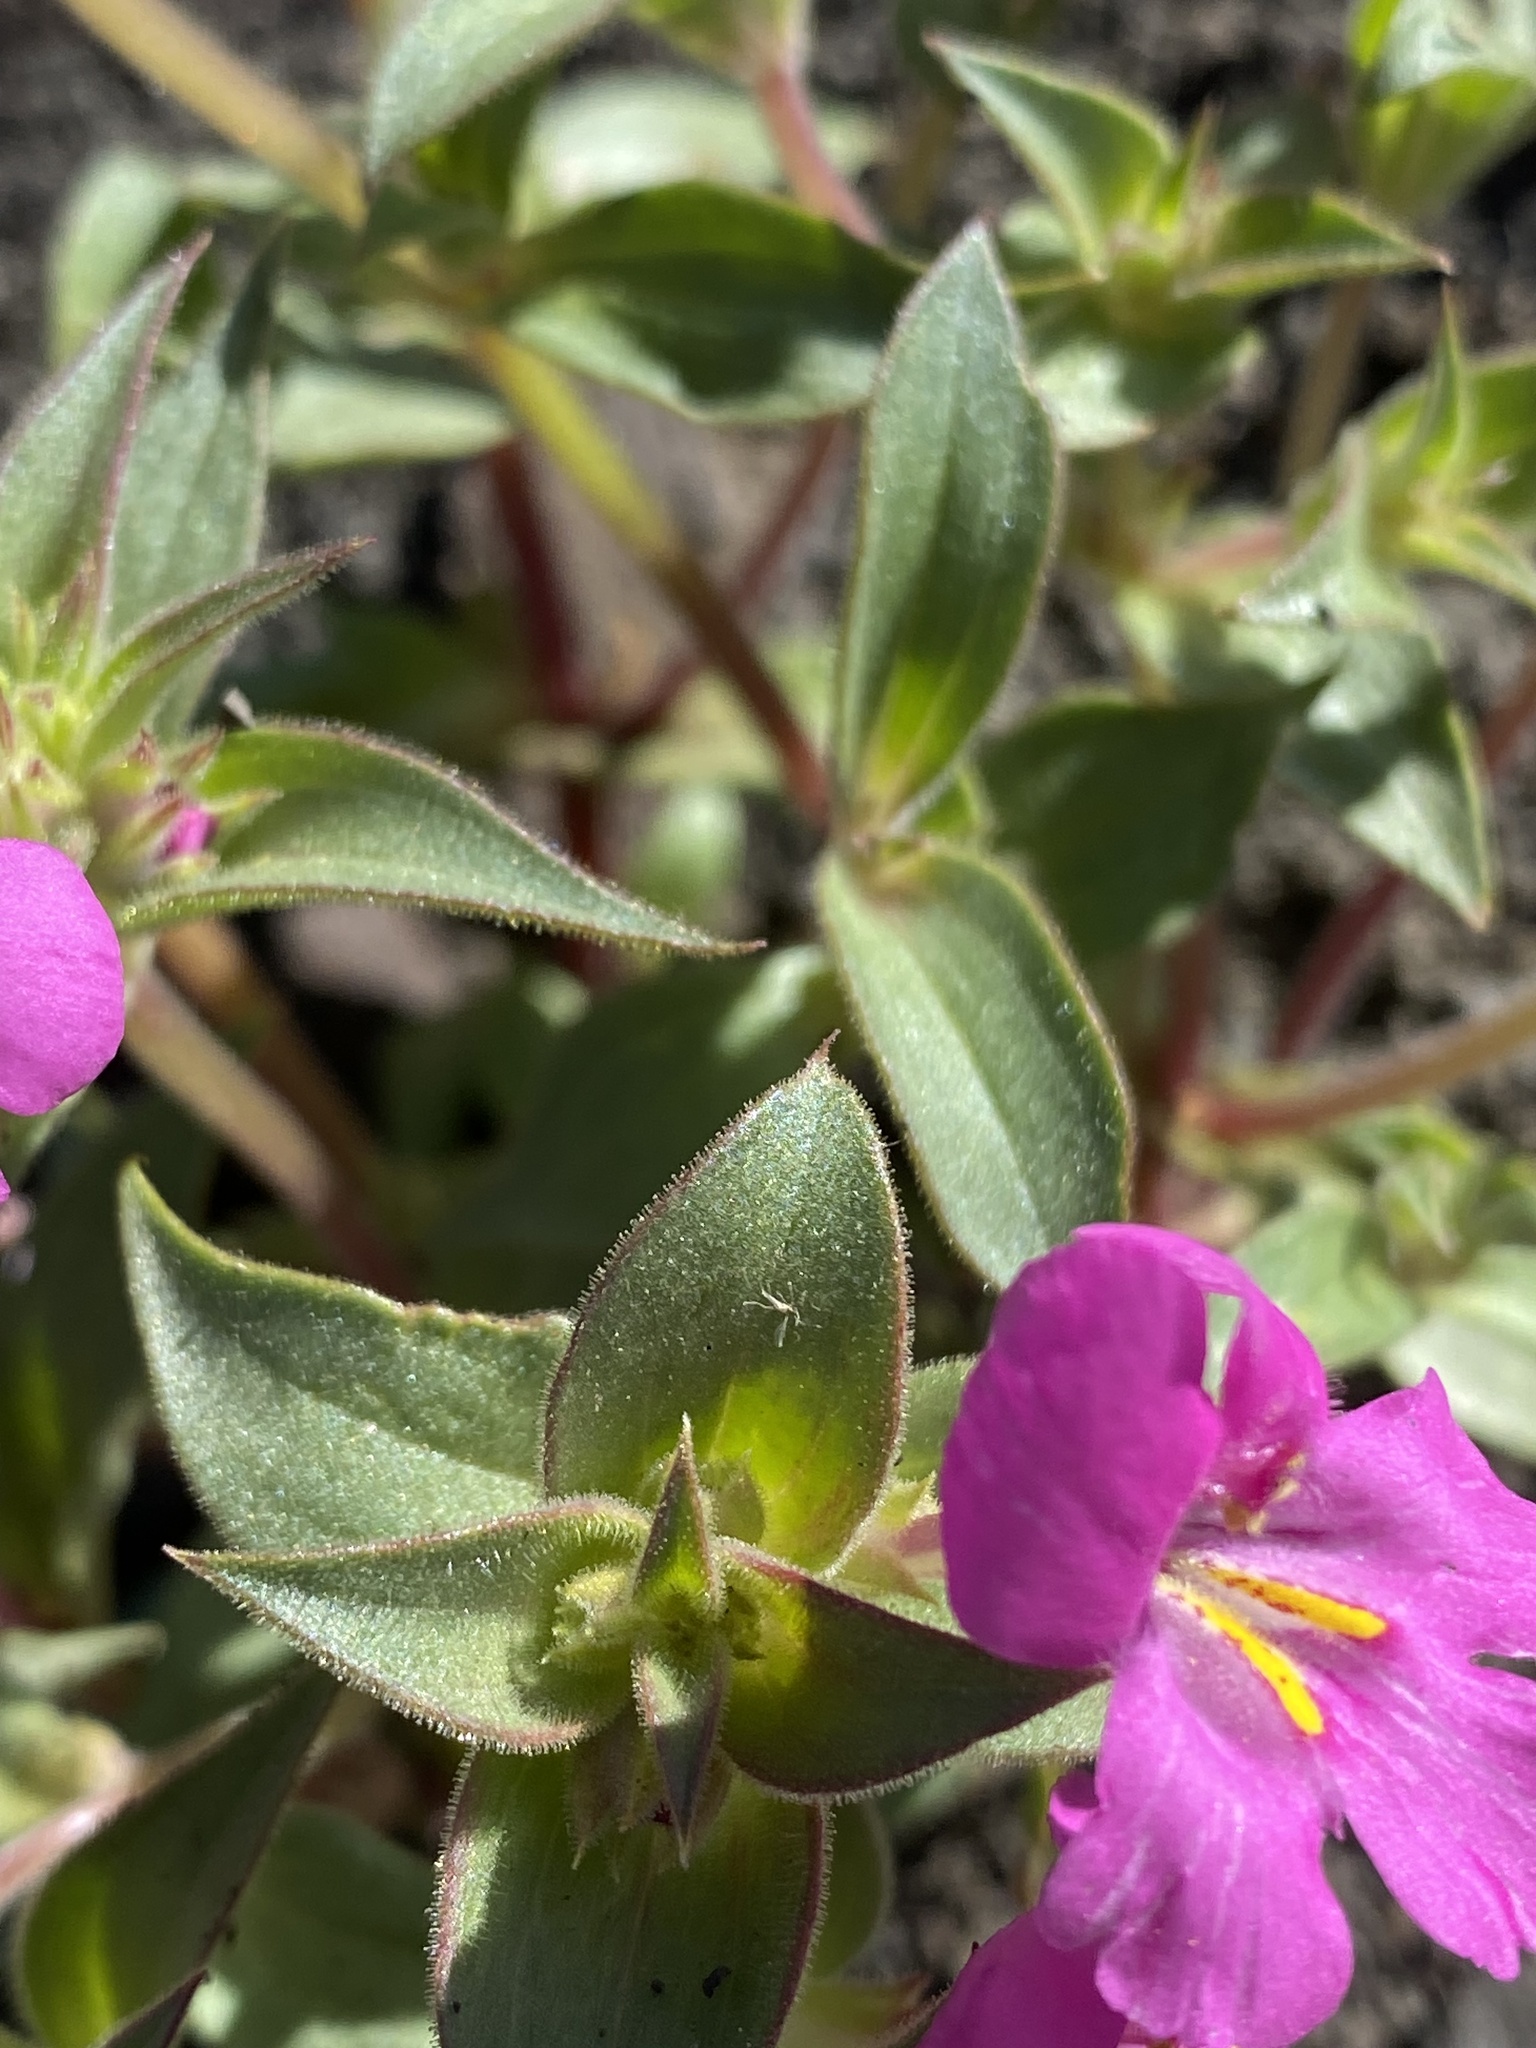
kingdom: Plantae
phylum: Tracheophyta
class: Magnoliopsida
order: Lamiales
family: Phrymaceae
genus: Diplacus
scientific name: Diplacus cusickioides
